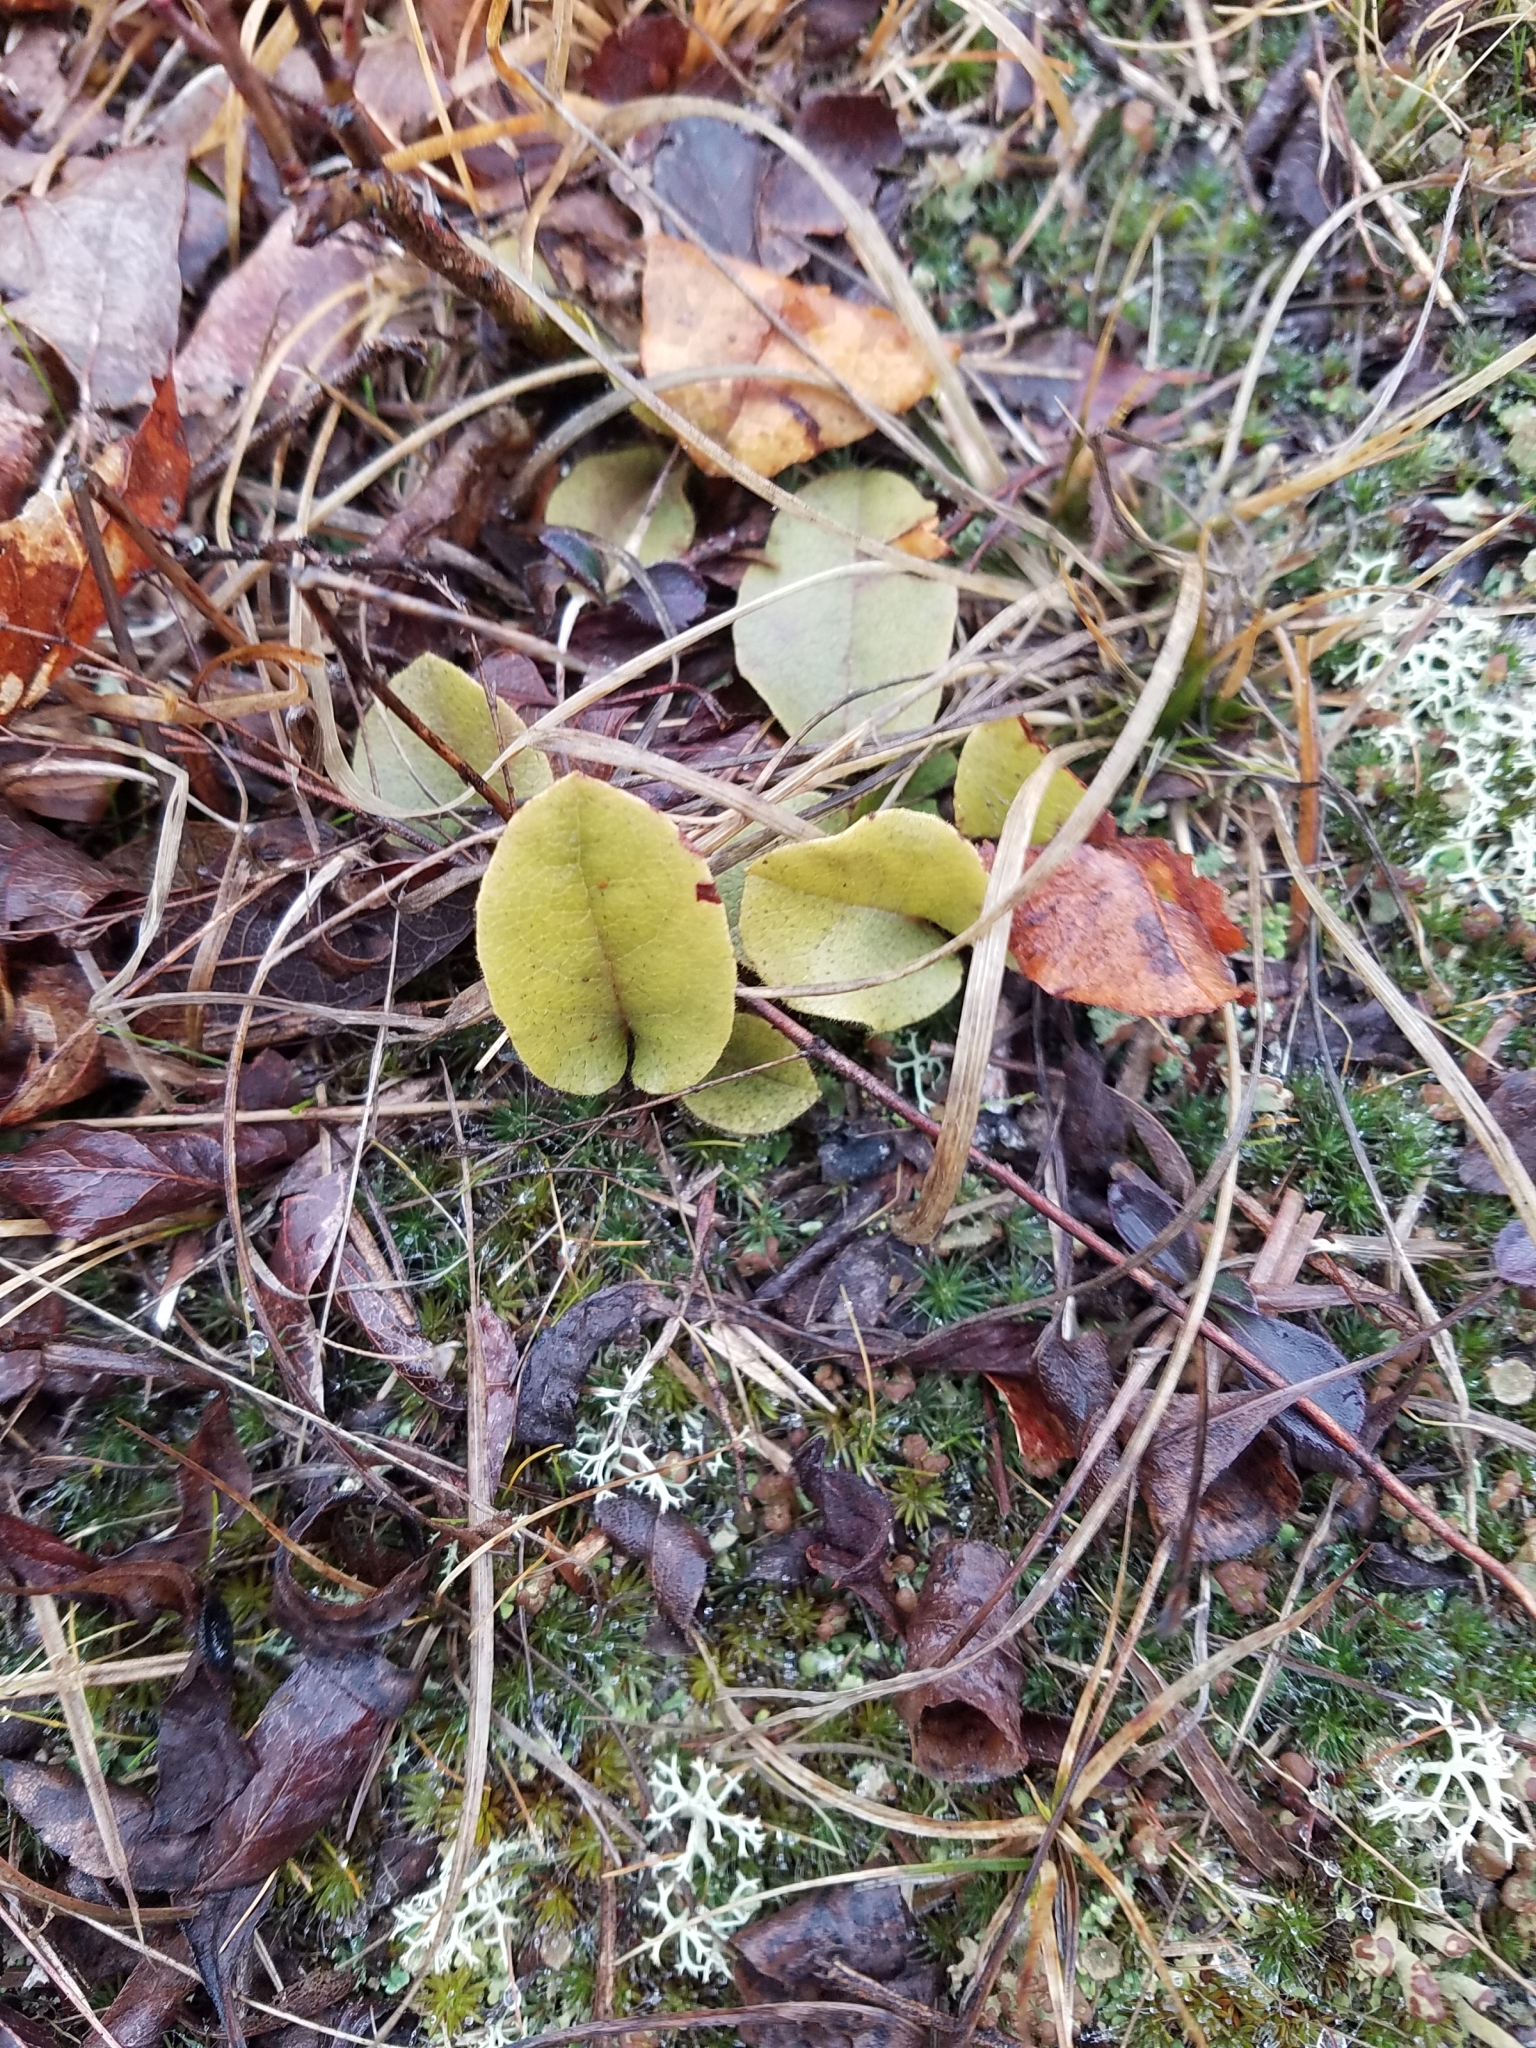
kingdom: Plantae
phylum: Tracheophyta
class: Magnoliopsida
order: Ericales
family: Ericaceae
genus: Epigaea
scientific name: Epigaea repens
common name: Gravelroot
